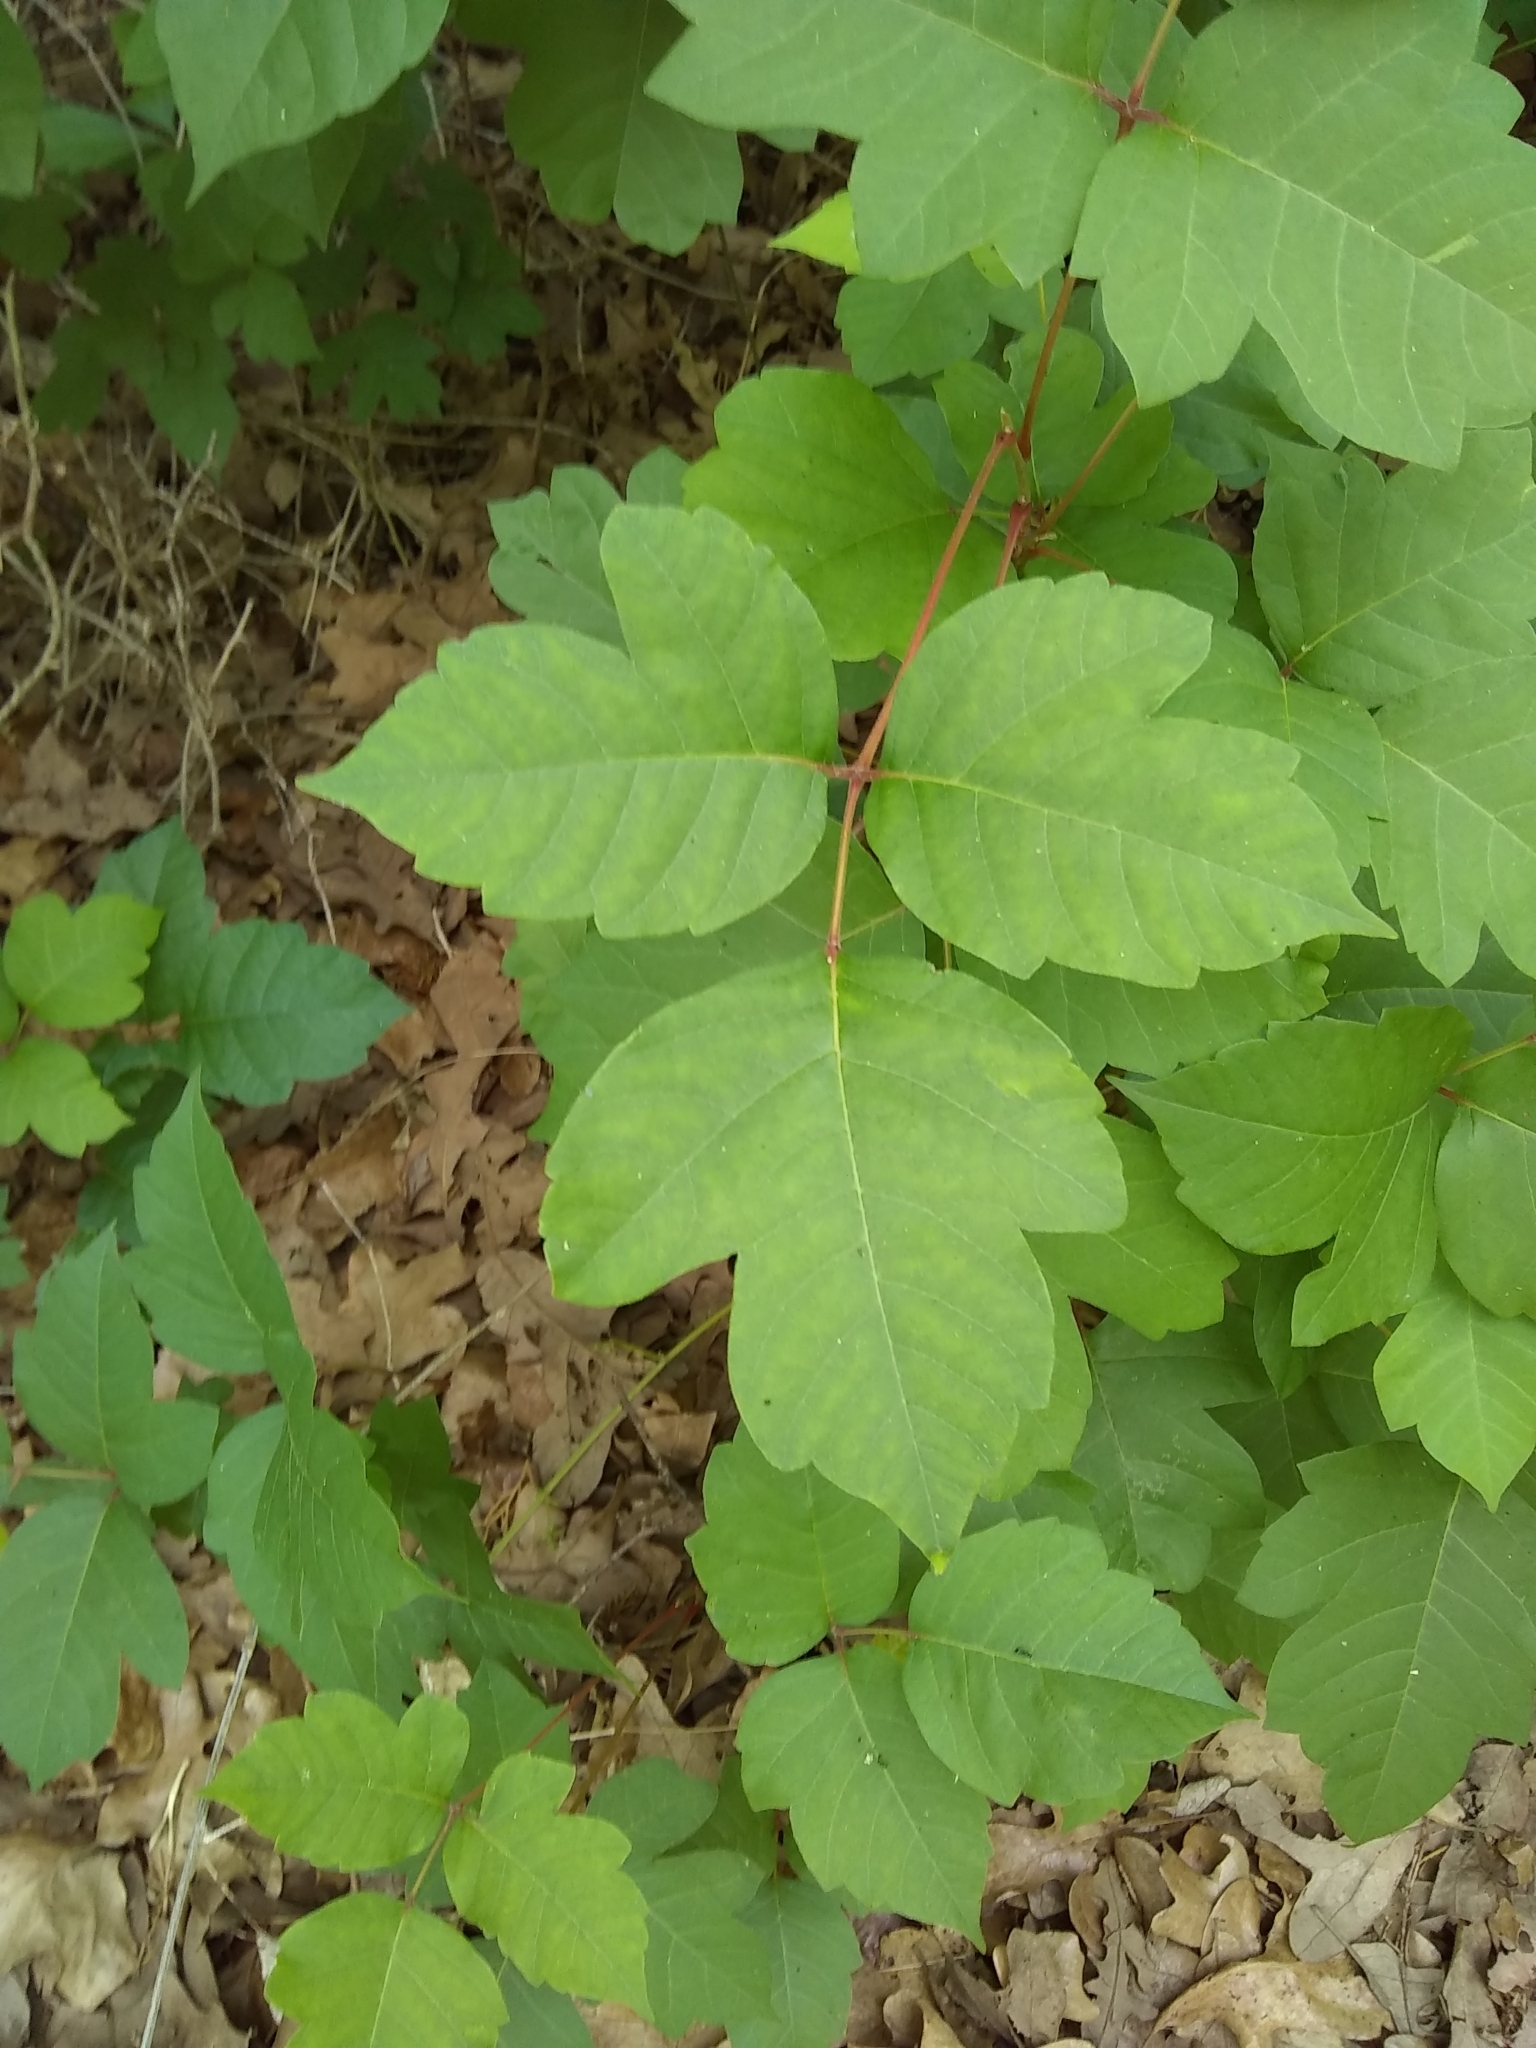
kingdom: Plantae
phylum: Tracheophyta
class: Magnoliopsida
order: Sapindales
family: Anacardiaceae
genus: Toxicodendron
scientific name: Toxicodendron radicans
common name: Poison ivy
